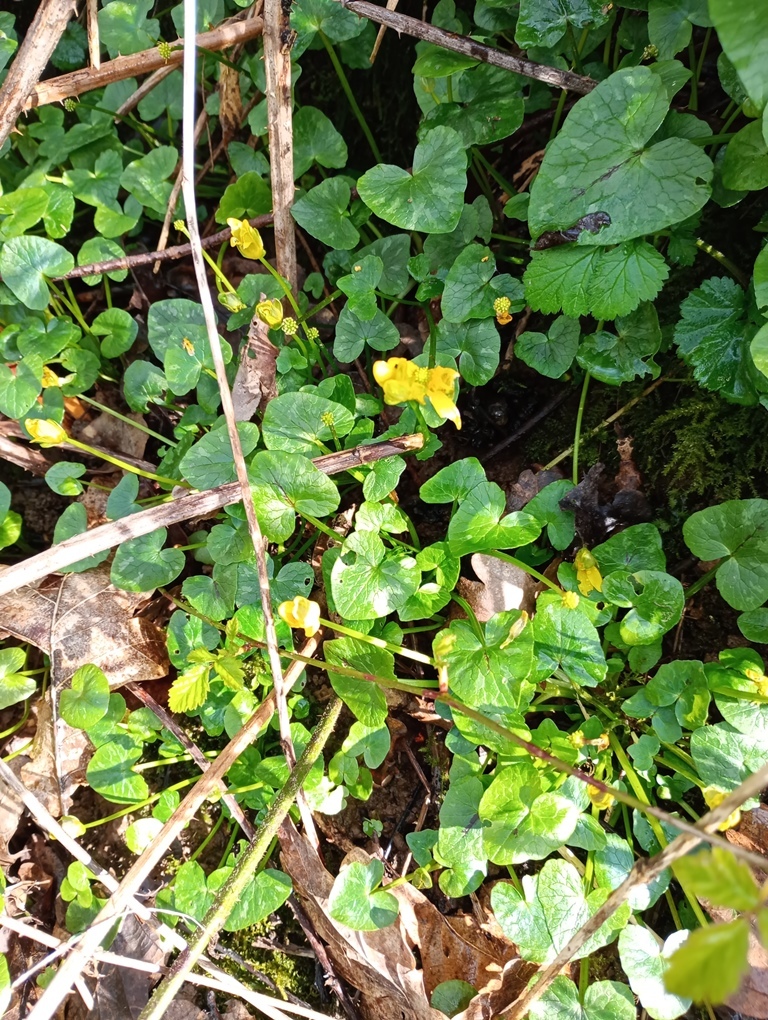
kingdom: Plantae
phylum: Tracheophyta
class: Magnoliopsida
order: Ranunculales
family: Ranunculaceae
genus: Ficaria
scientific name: Ficaria verna
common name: Lesser celandine
